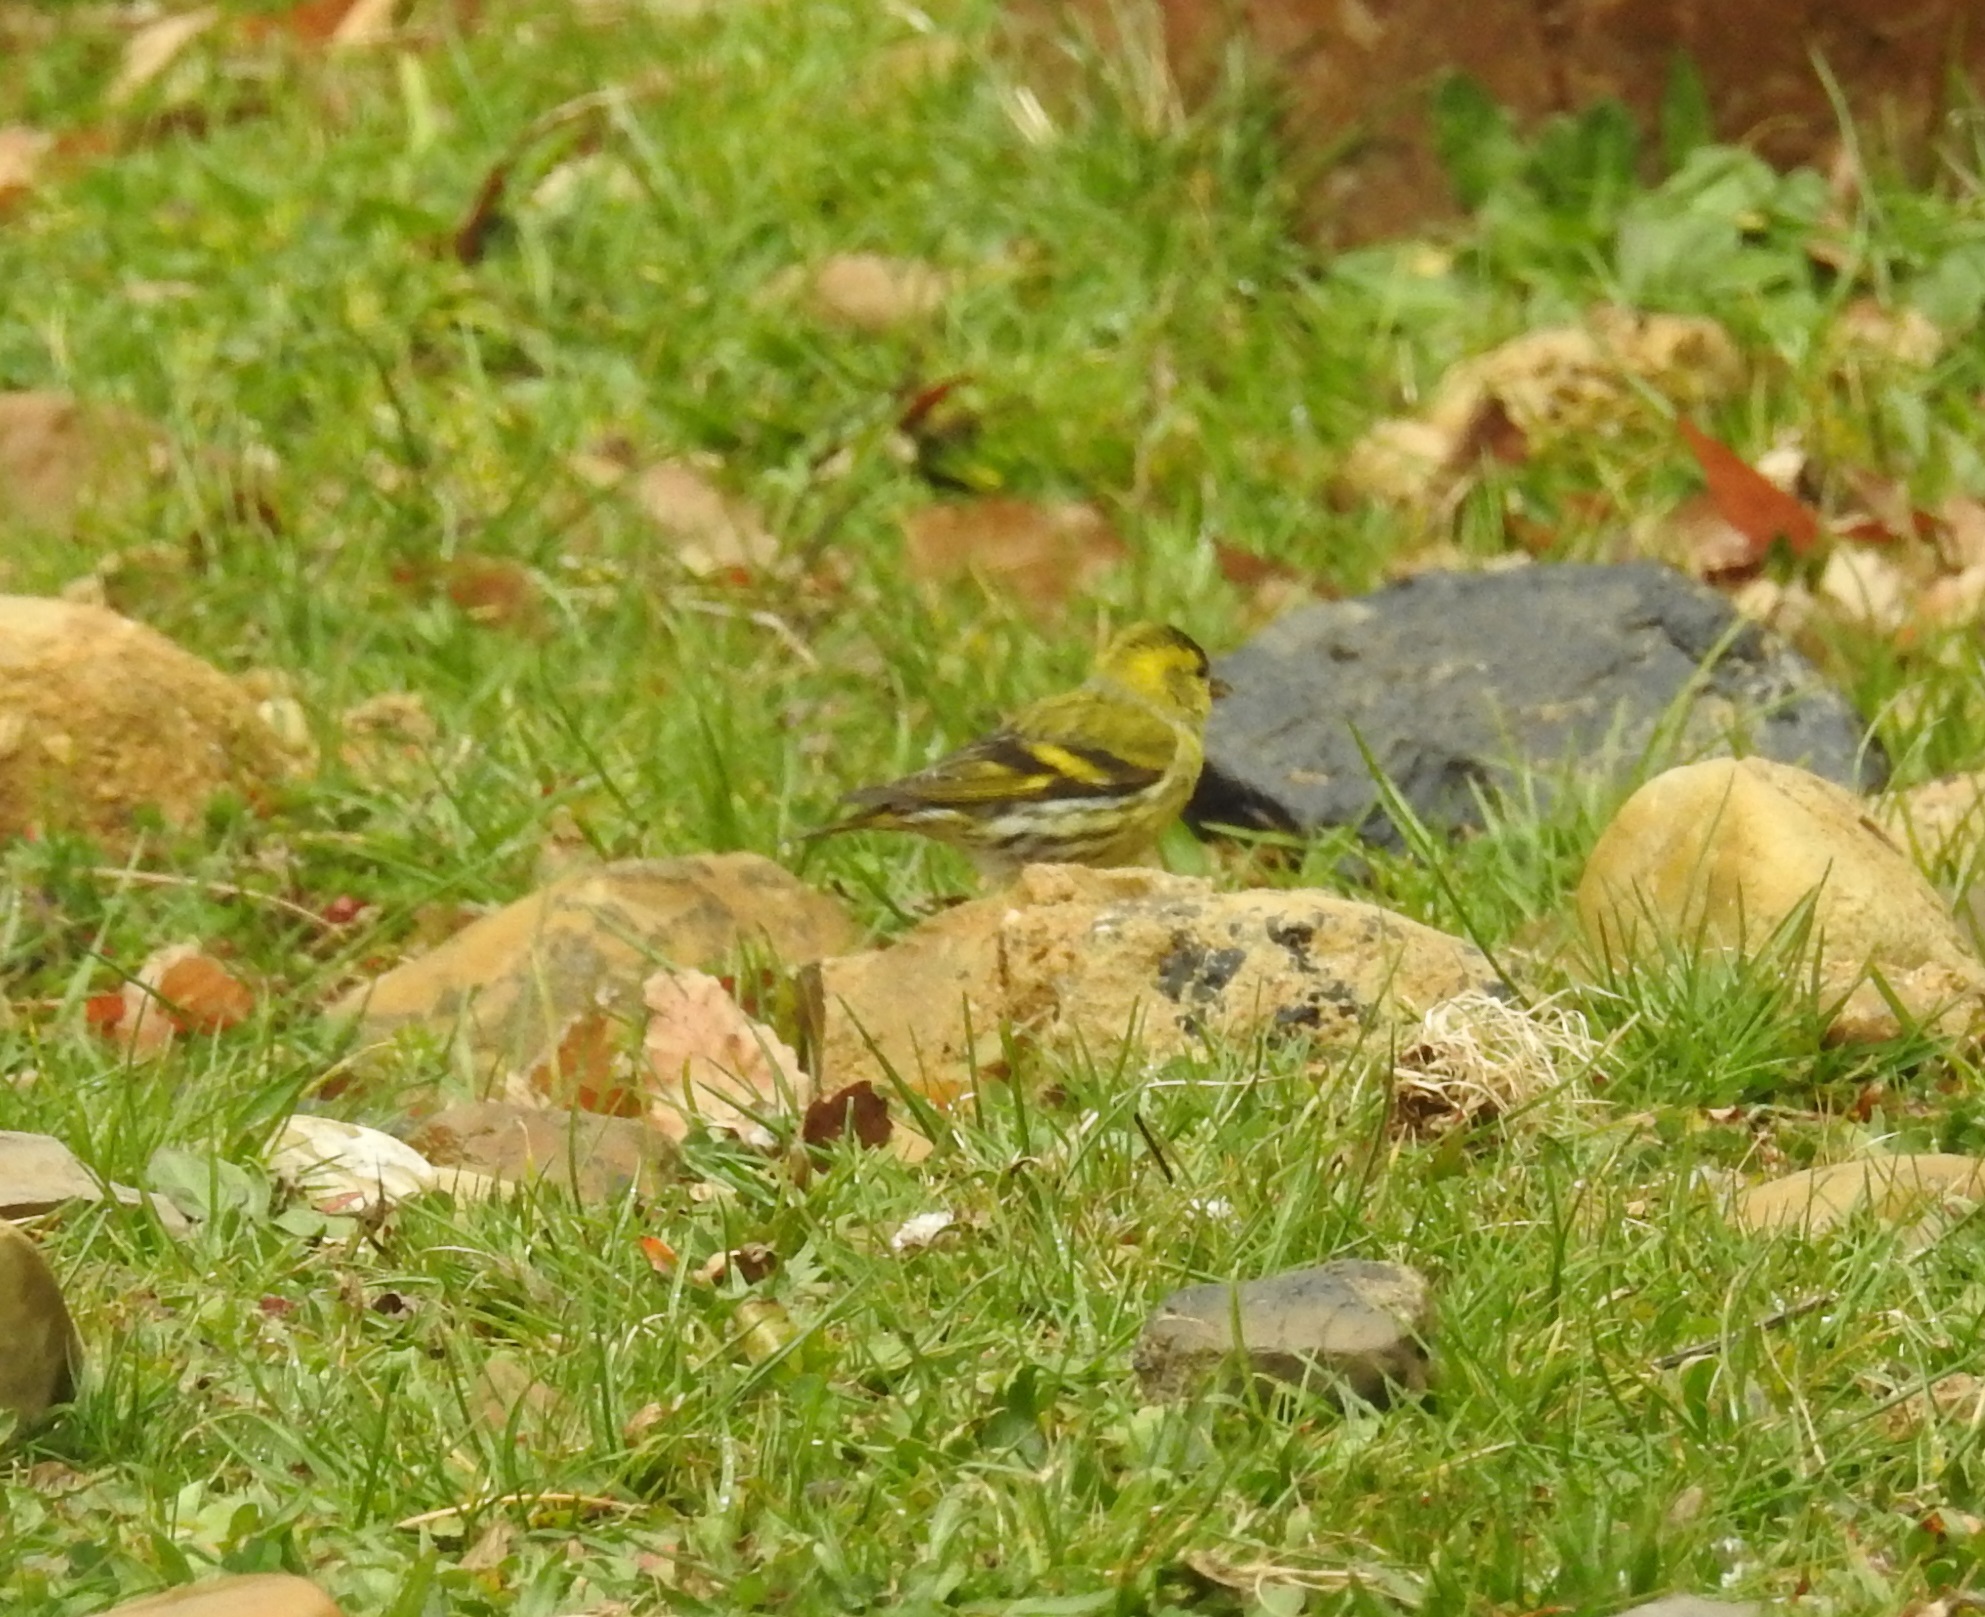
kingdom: Animalia
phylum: Chordata
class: Aves
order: Passeriformes
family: Fringillidae
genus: Spinus
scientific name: Spinus spinus
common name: Eurasian siskin
